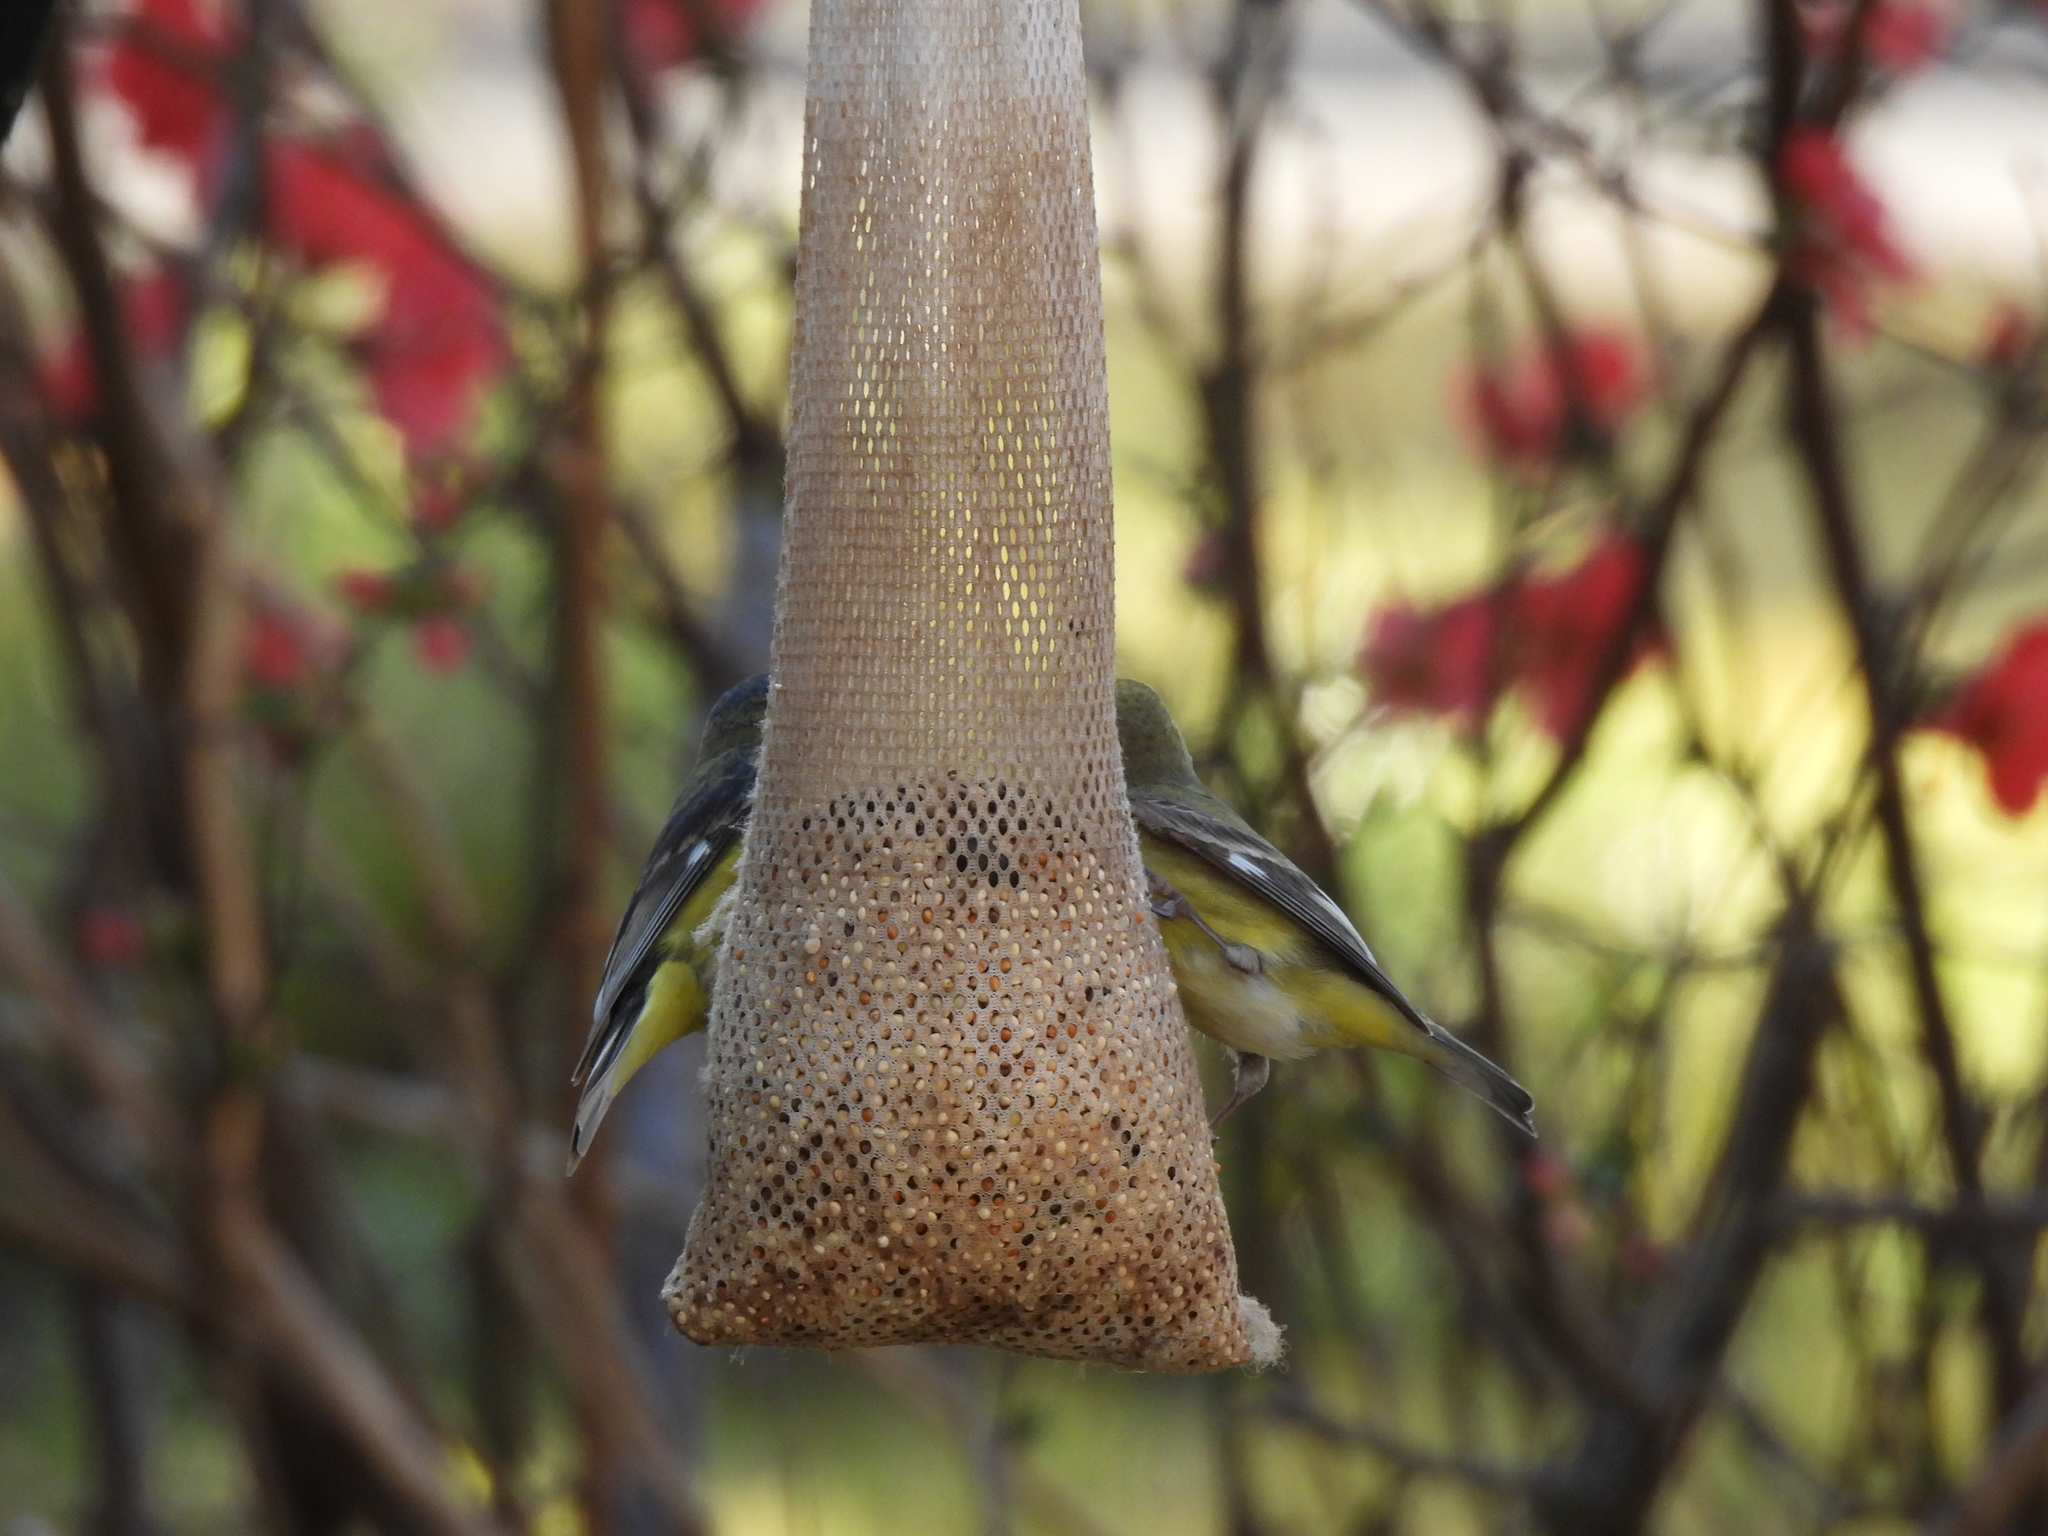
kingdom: Animalia
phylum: Chordata
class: Aves
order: Passeriformes
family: Fringillidae
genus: Spinus
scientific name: Spinus psaltria
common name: Lesser goldfinch
